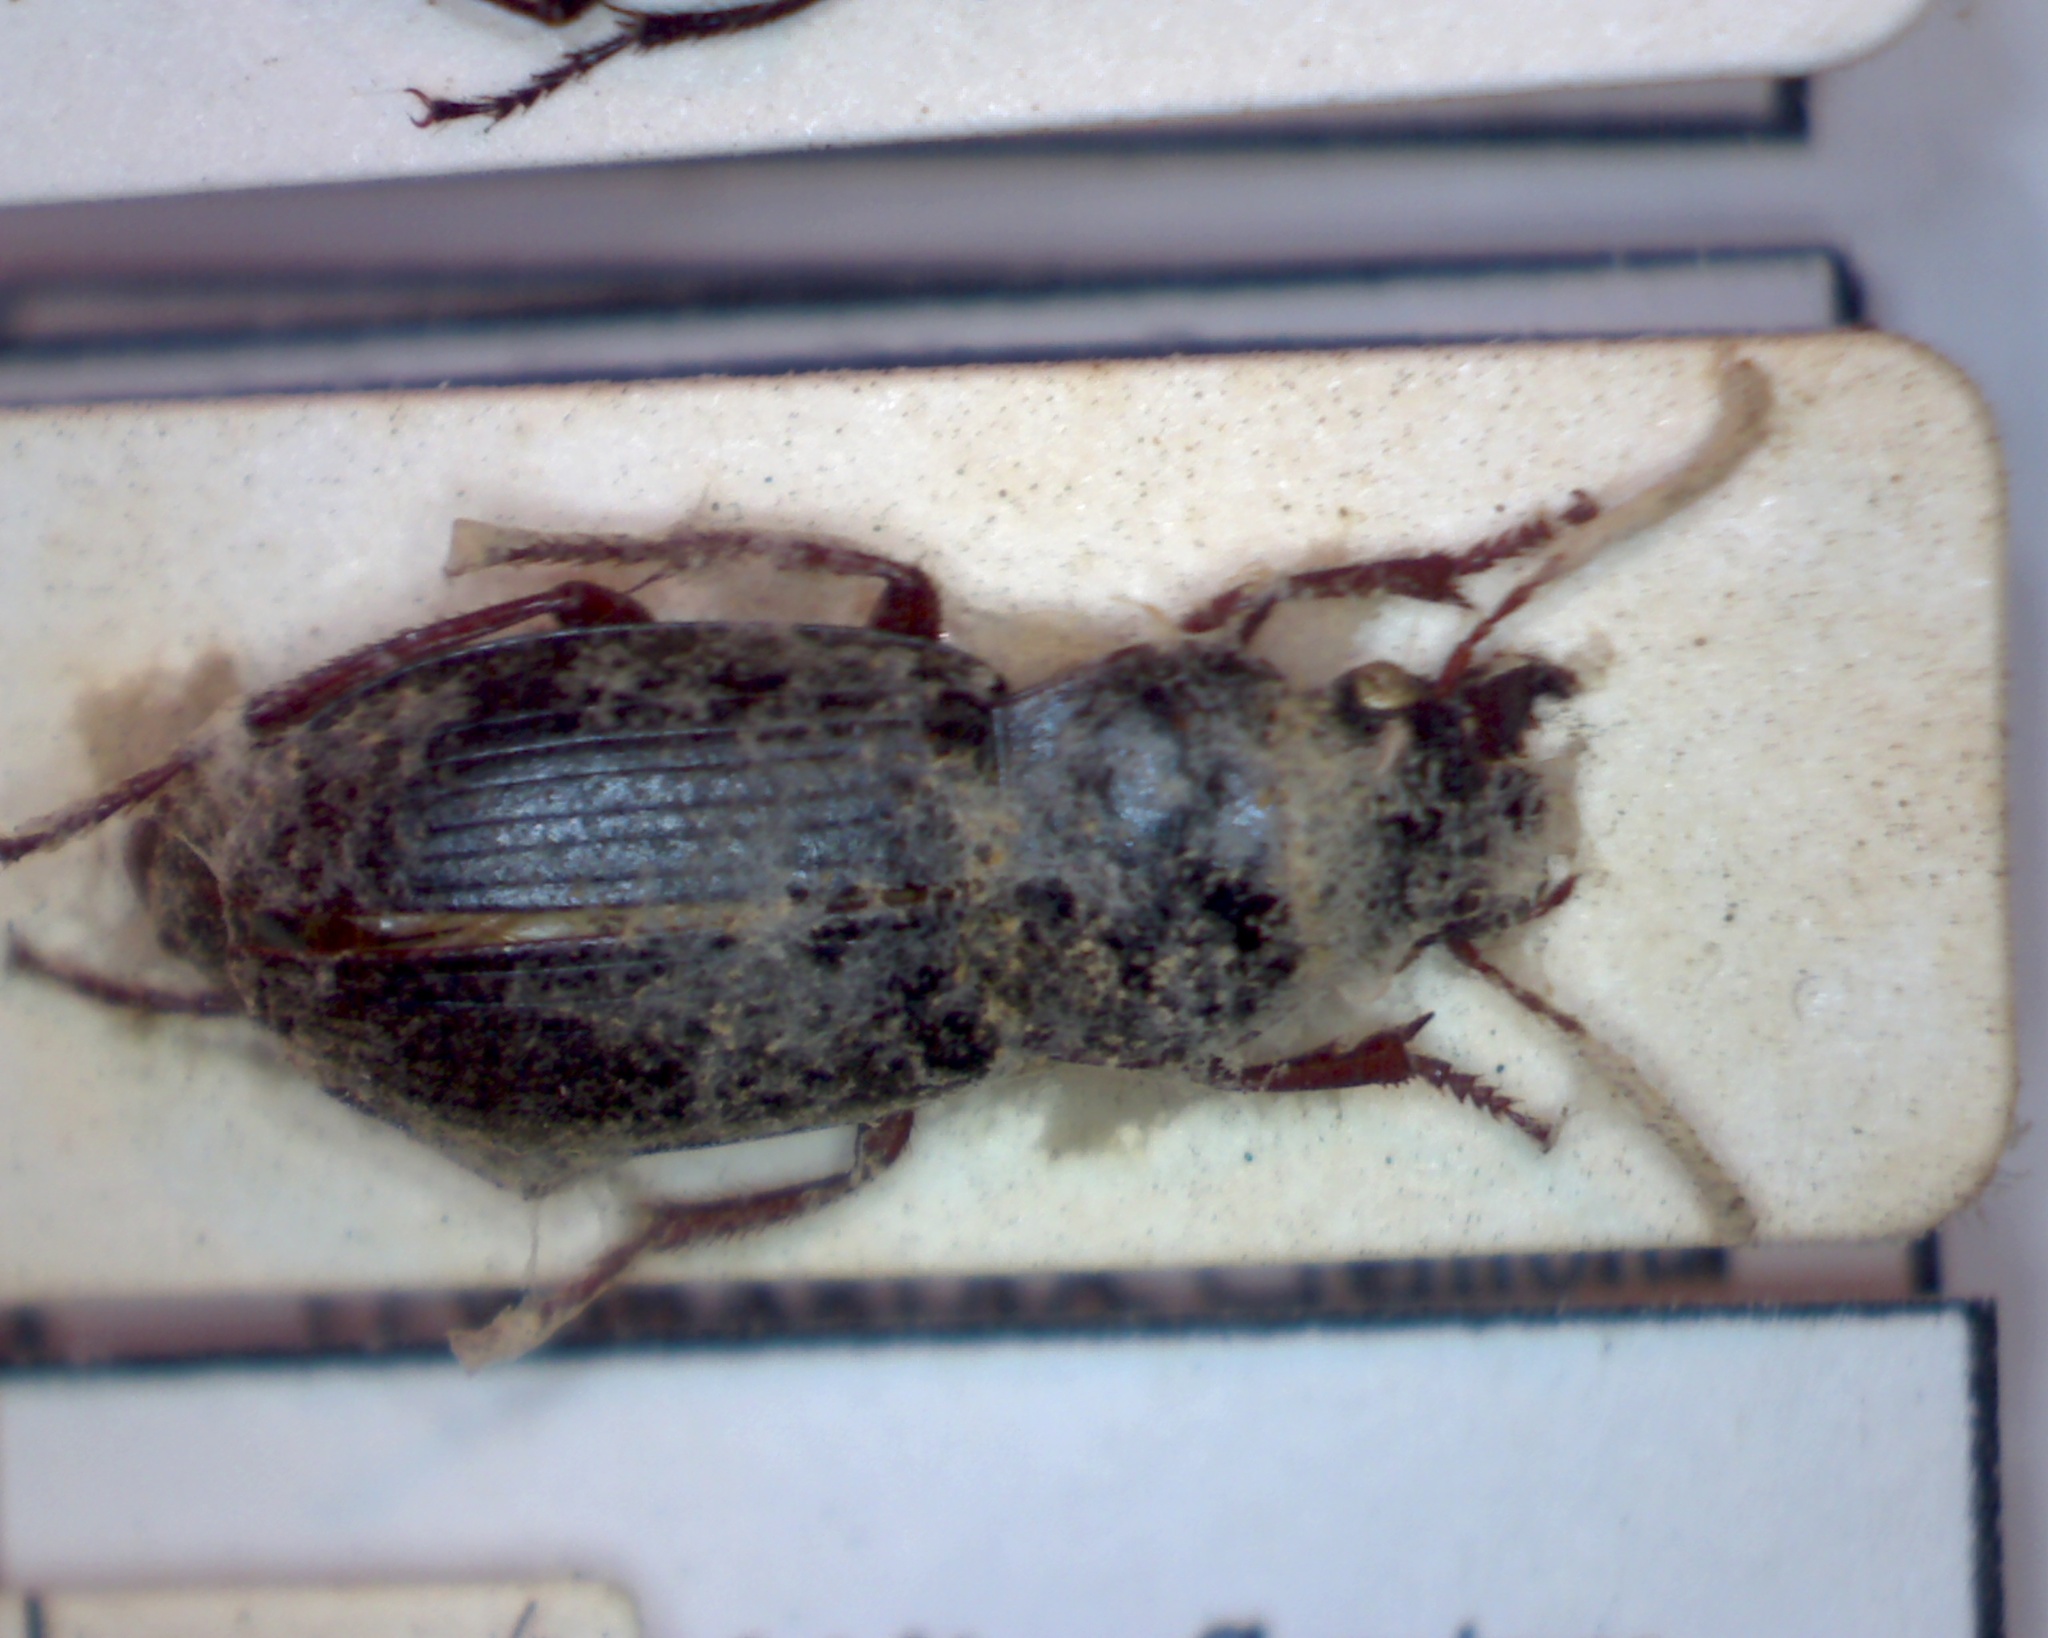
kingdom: Animalia
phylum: Arthropoda
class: Insecta
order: Coleoptera
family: Carabidae
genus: Harpalus
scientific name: Harpalus rufipes
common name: Strawberry harp ground beetle
